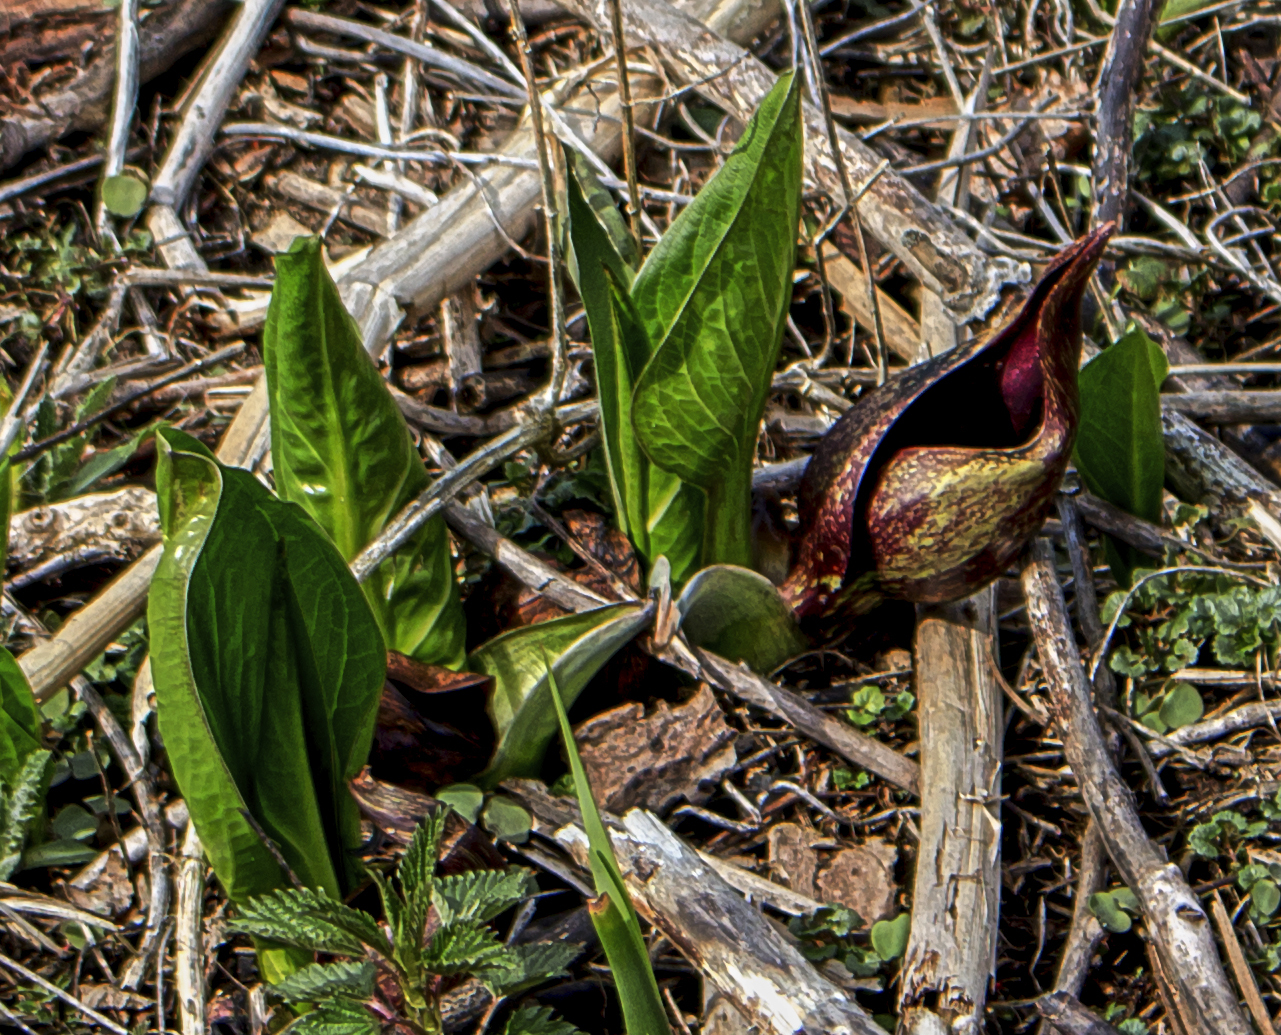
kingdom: Plantae
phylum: Tracheophyta
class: Liliopsida
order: Alismatales
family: Araceae
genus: Symplocarpus
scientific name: Symplocarpus foetidus
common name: Eastern skunk cabbage
